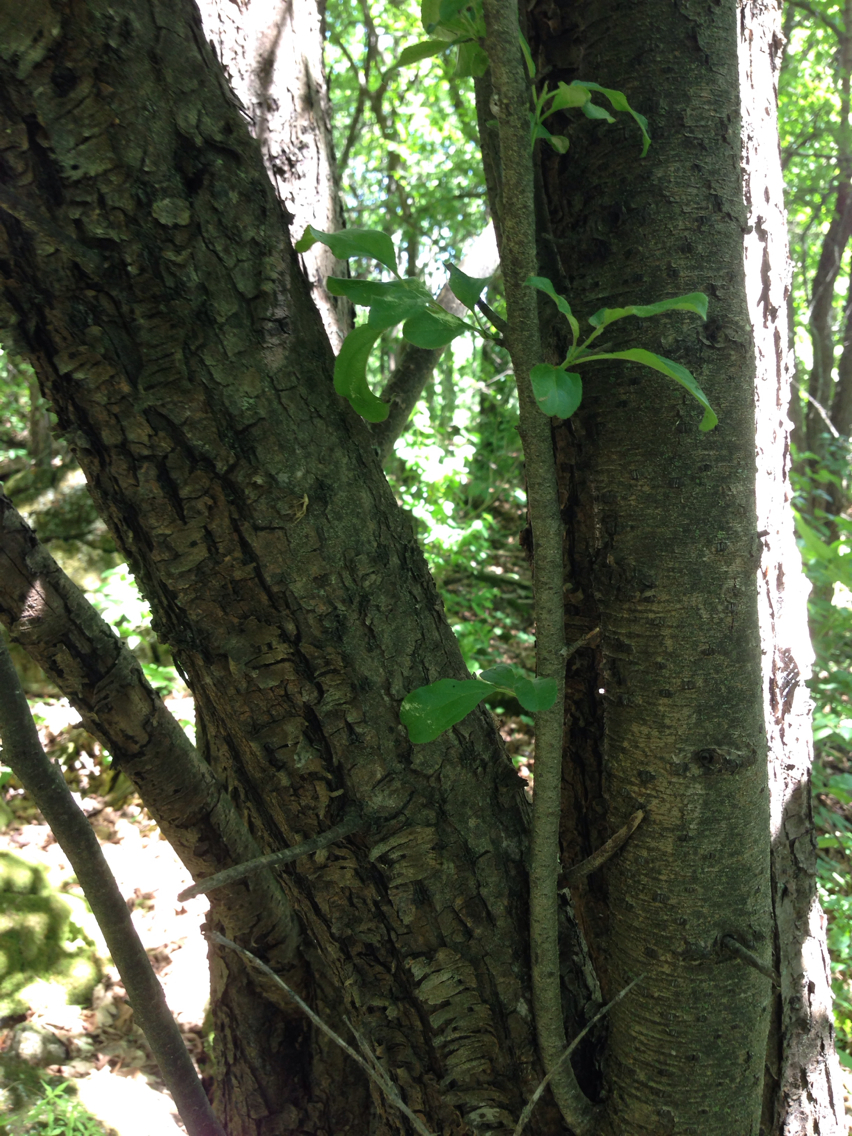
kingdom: Plantae
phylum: Tracheophyta
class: Magnoliopsida
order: Rosales
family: Rhamnaceae
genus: Rhamnus
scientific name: Rhamnus cathartica
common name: Common buckthorn
